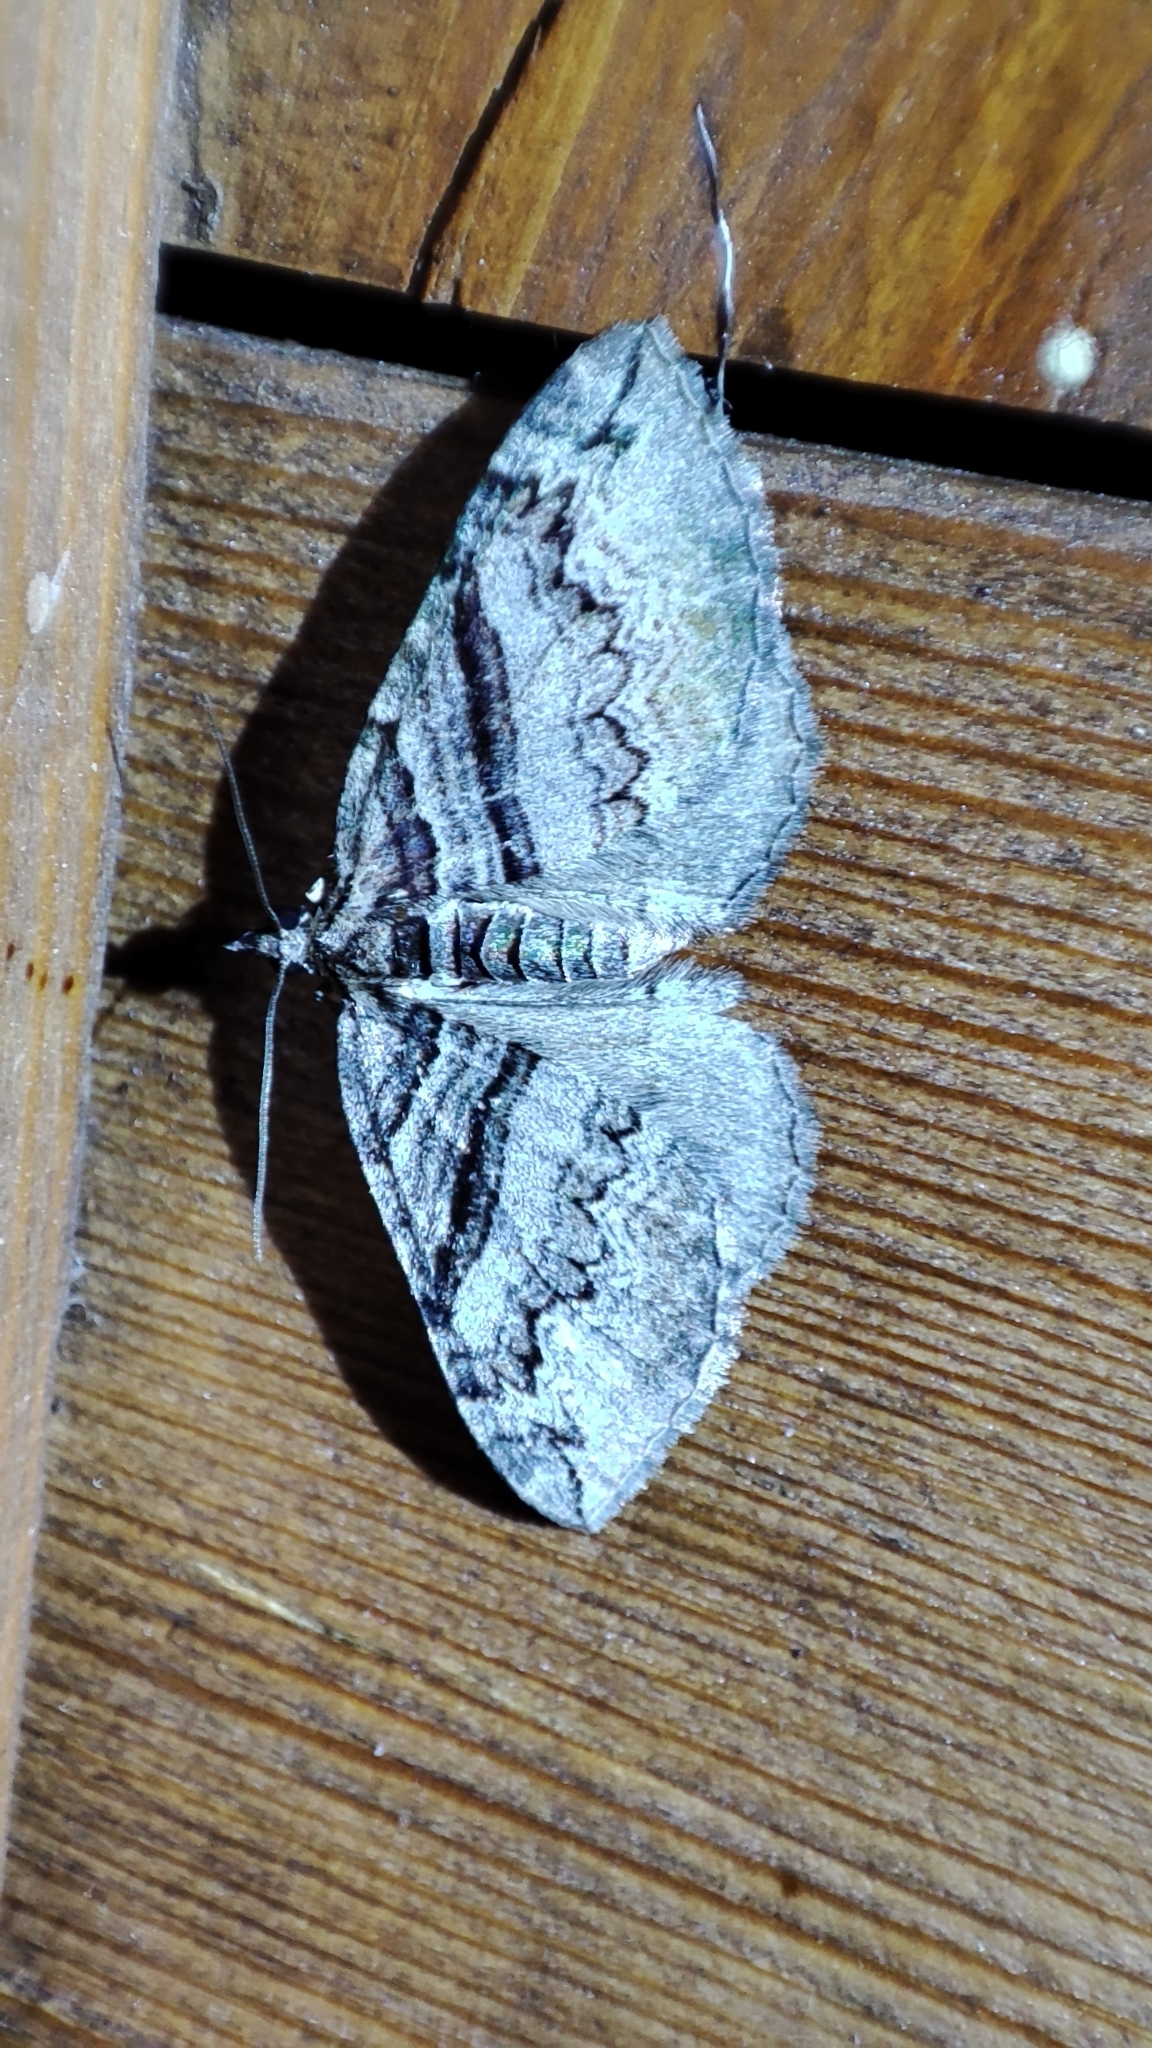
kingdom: Animalia
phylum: Arthropoda
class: Insecta
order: Lepidoptera
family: Geometridae
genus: Pareulype
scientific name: Pareulype consanguinea
